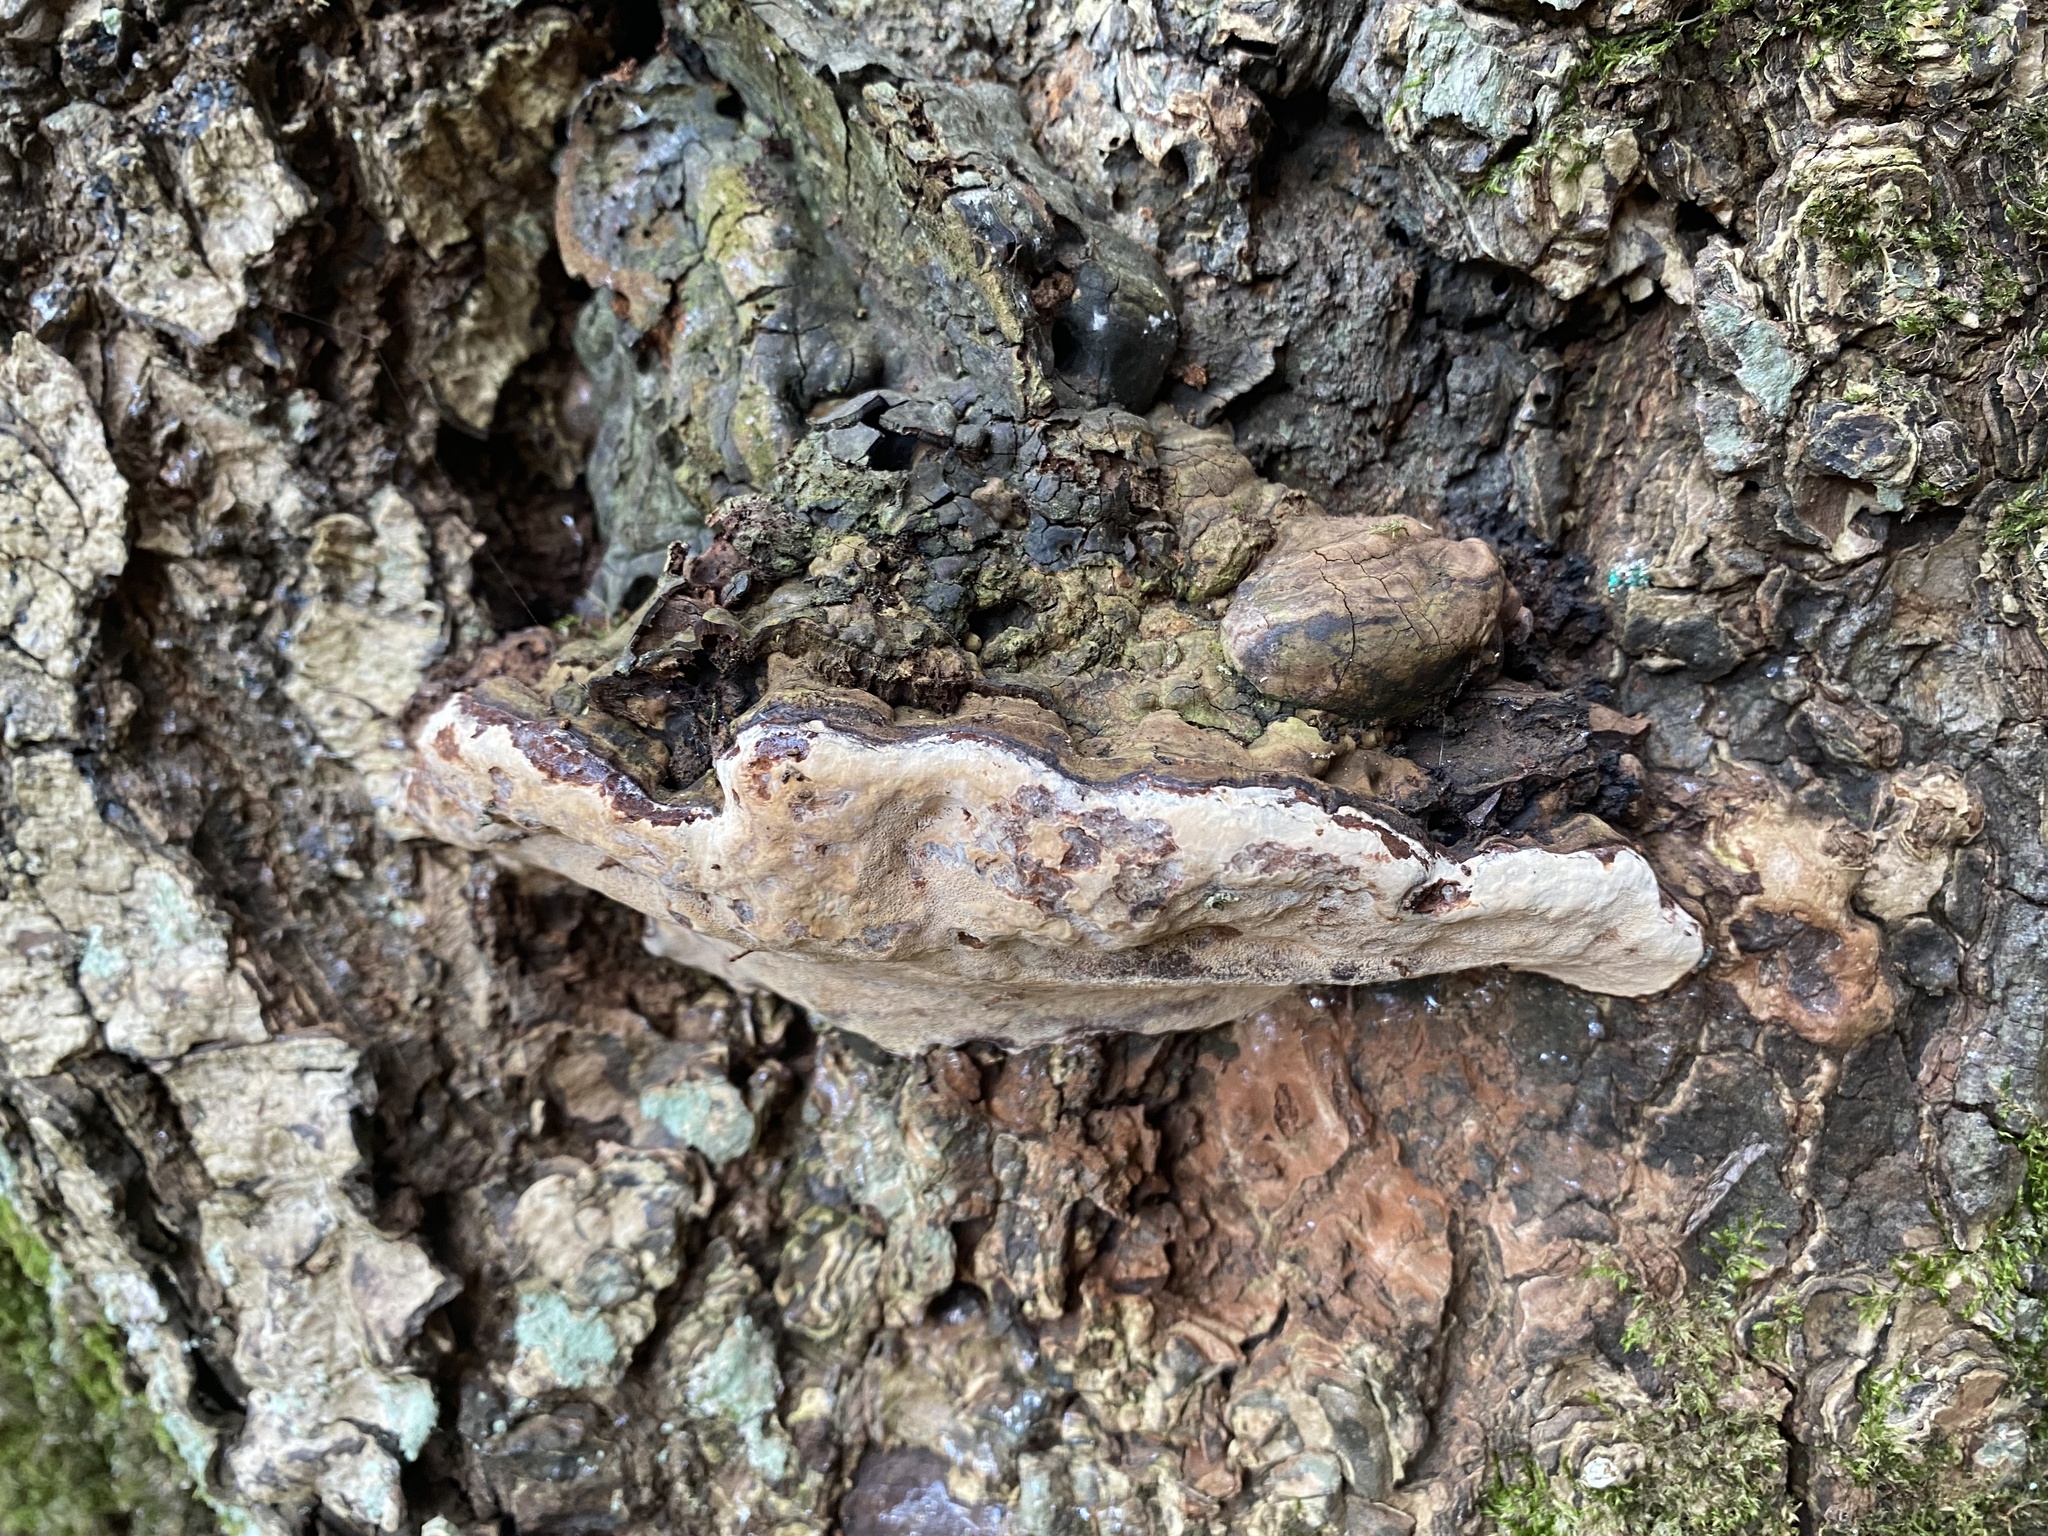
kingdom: Fungi
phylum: Basidiomycota
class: Agaricomycetes
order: Polyporales
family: Polyporaceae
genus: Ganoderma
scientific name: Ganoderma brownii
